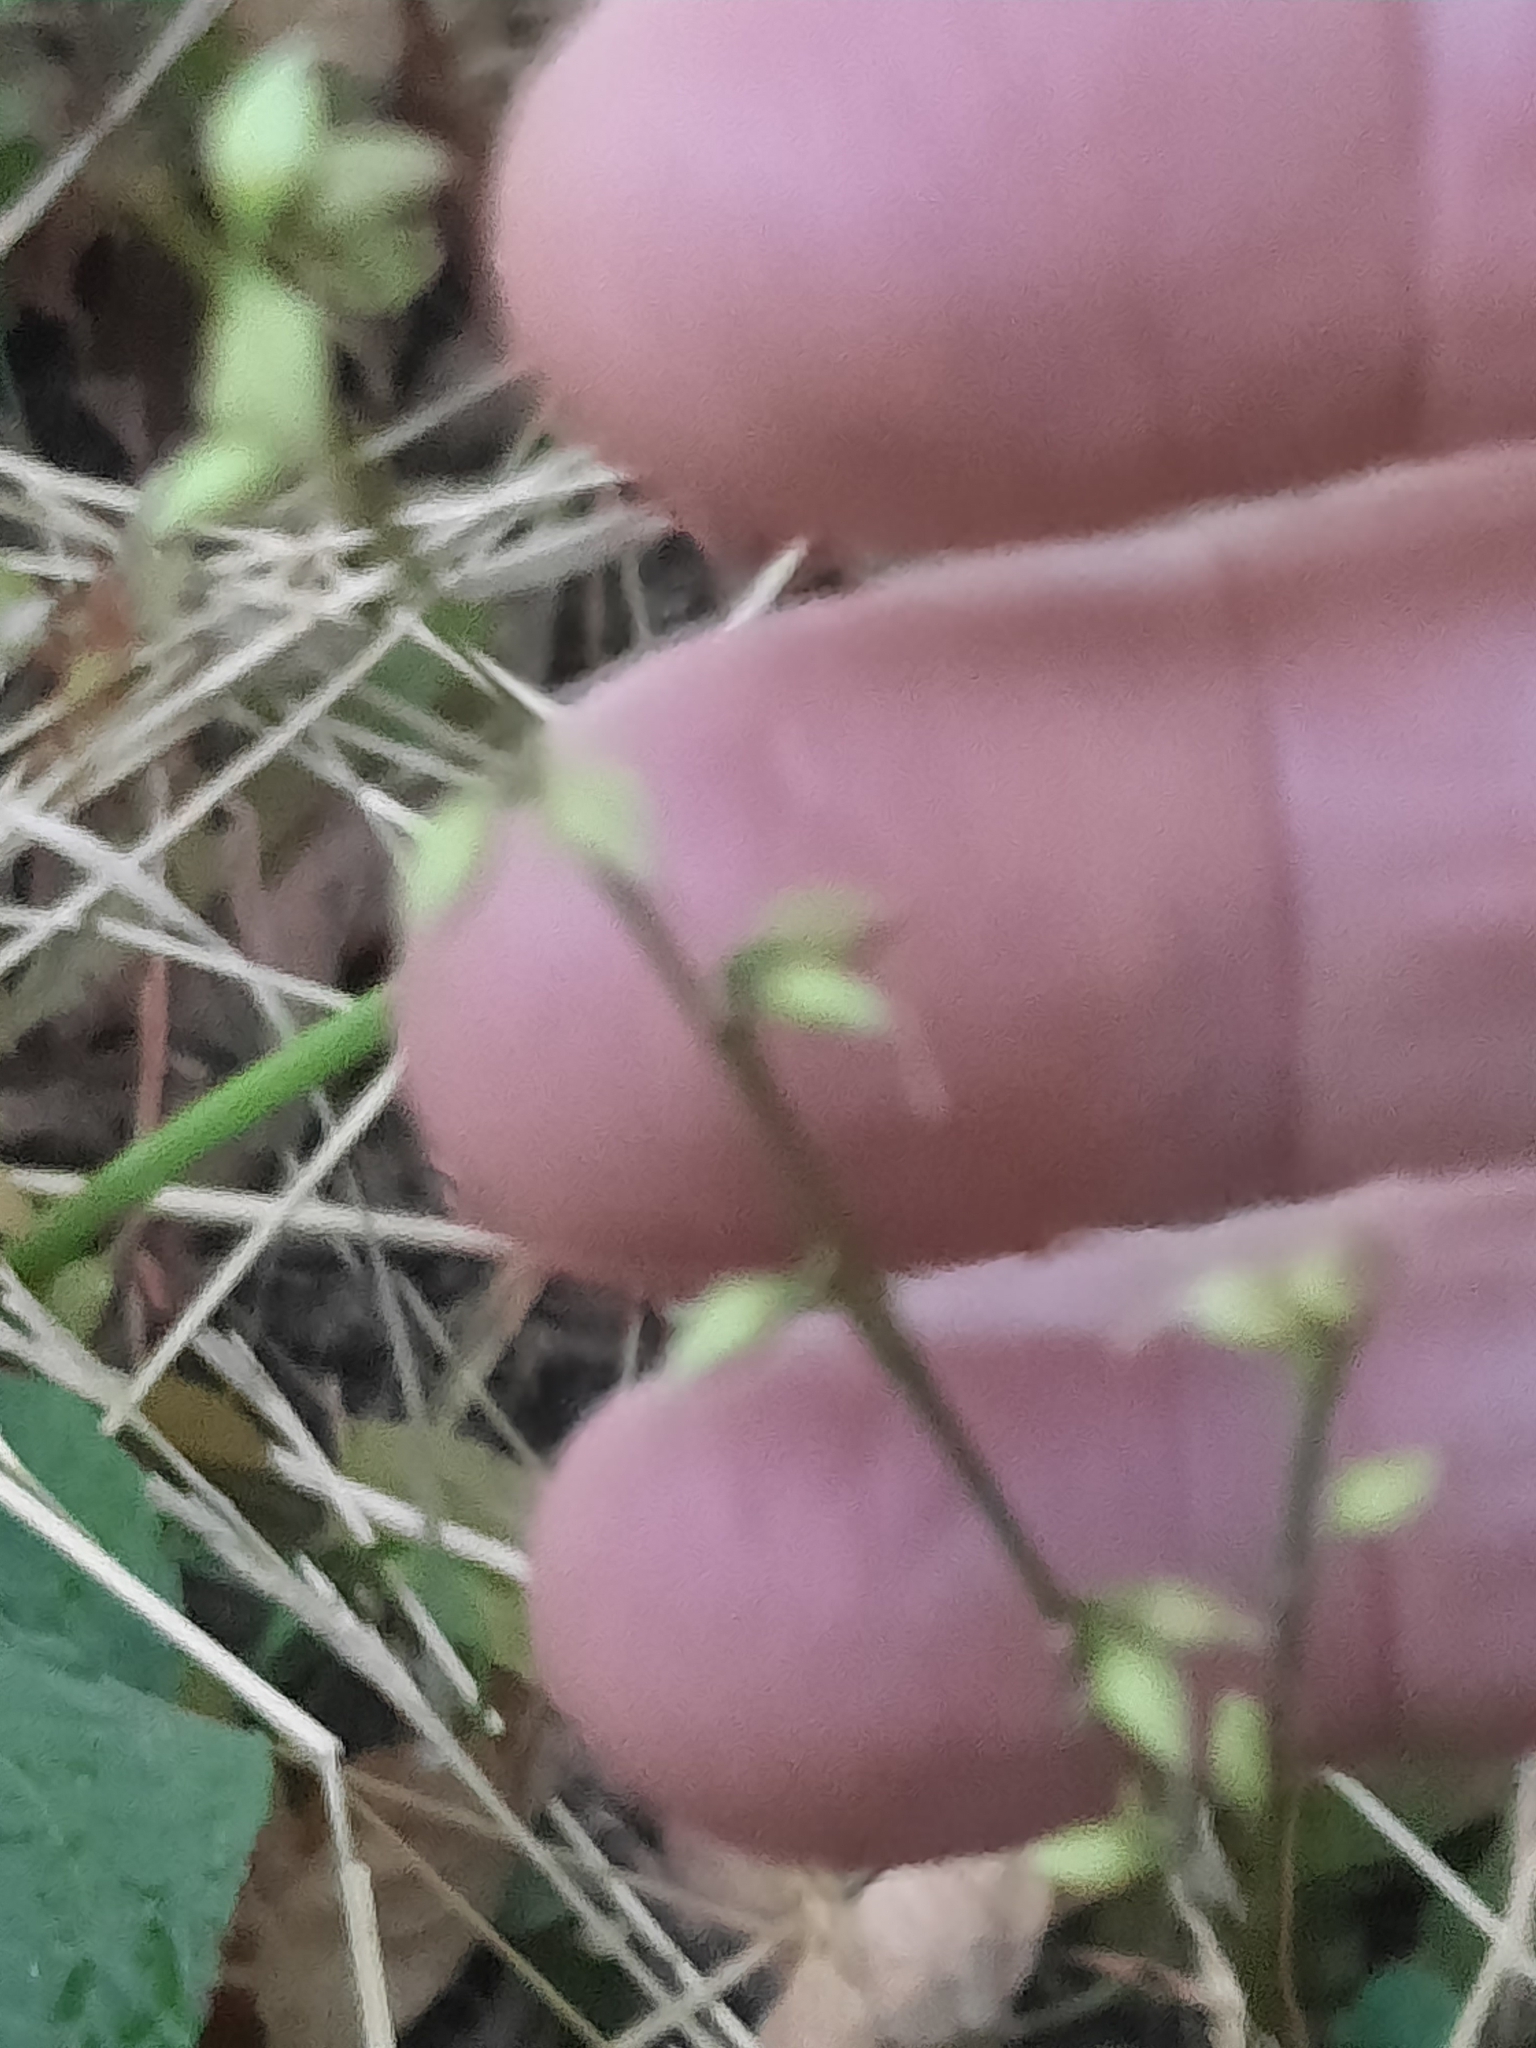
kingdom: Plantae
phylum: Tracheophyta
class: Magnoliopsida
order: Caryophyllales
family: Polygonaceae
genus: Persicaria
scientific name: Persicaria virginiana
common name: Jumpseed
